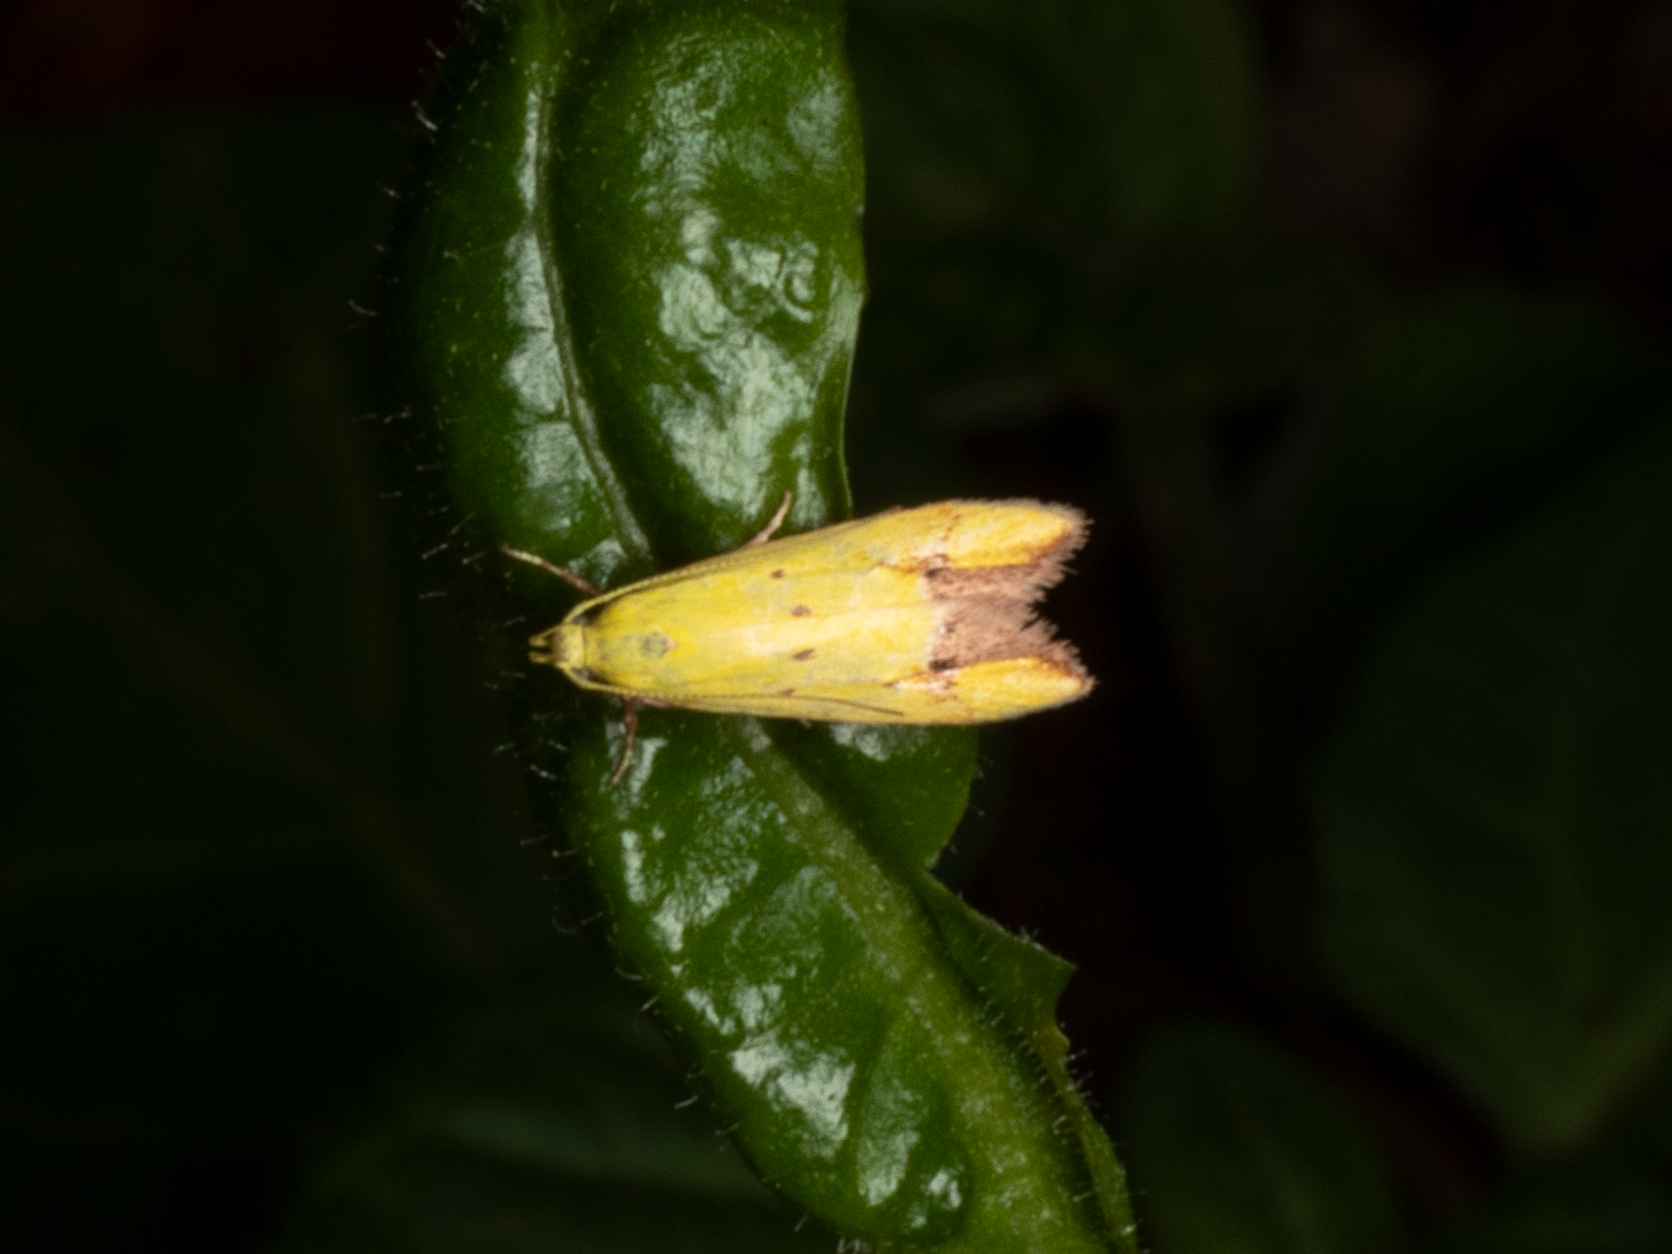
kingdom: Animalia
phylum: Arthropoda
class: Insecta
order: Lepidoptera
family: Oecophoridae
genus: Gymnobathra
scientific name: Gymnobathra flavidella
